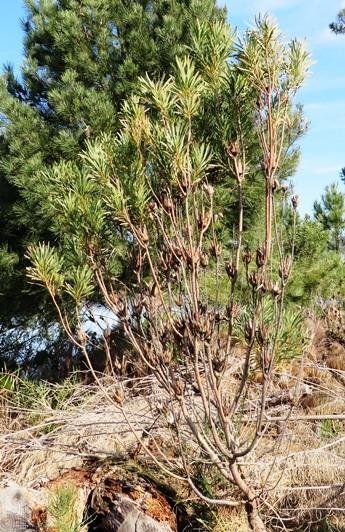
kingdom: Plantae
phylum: Tracheophyta
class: Magnoliopsida
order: Proteales
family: Proteaceae
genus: Protea
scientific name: Protea repens
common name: Sugarbush
